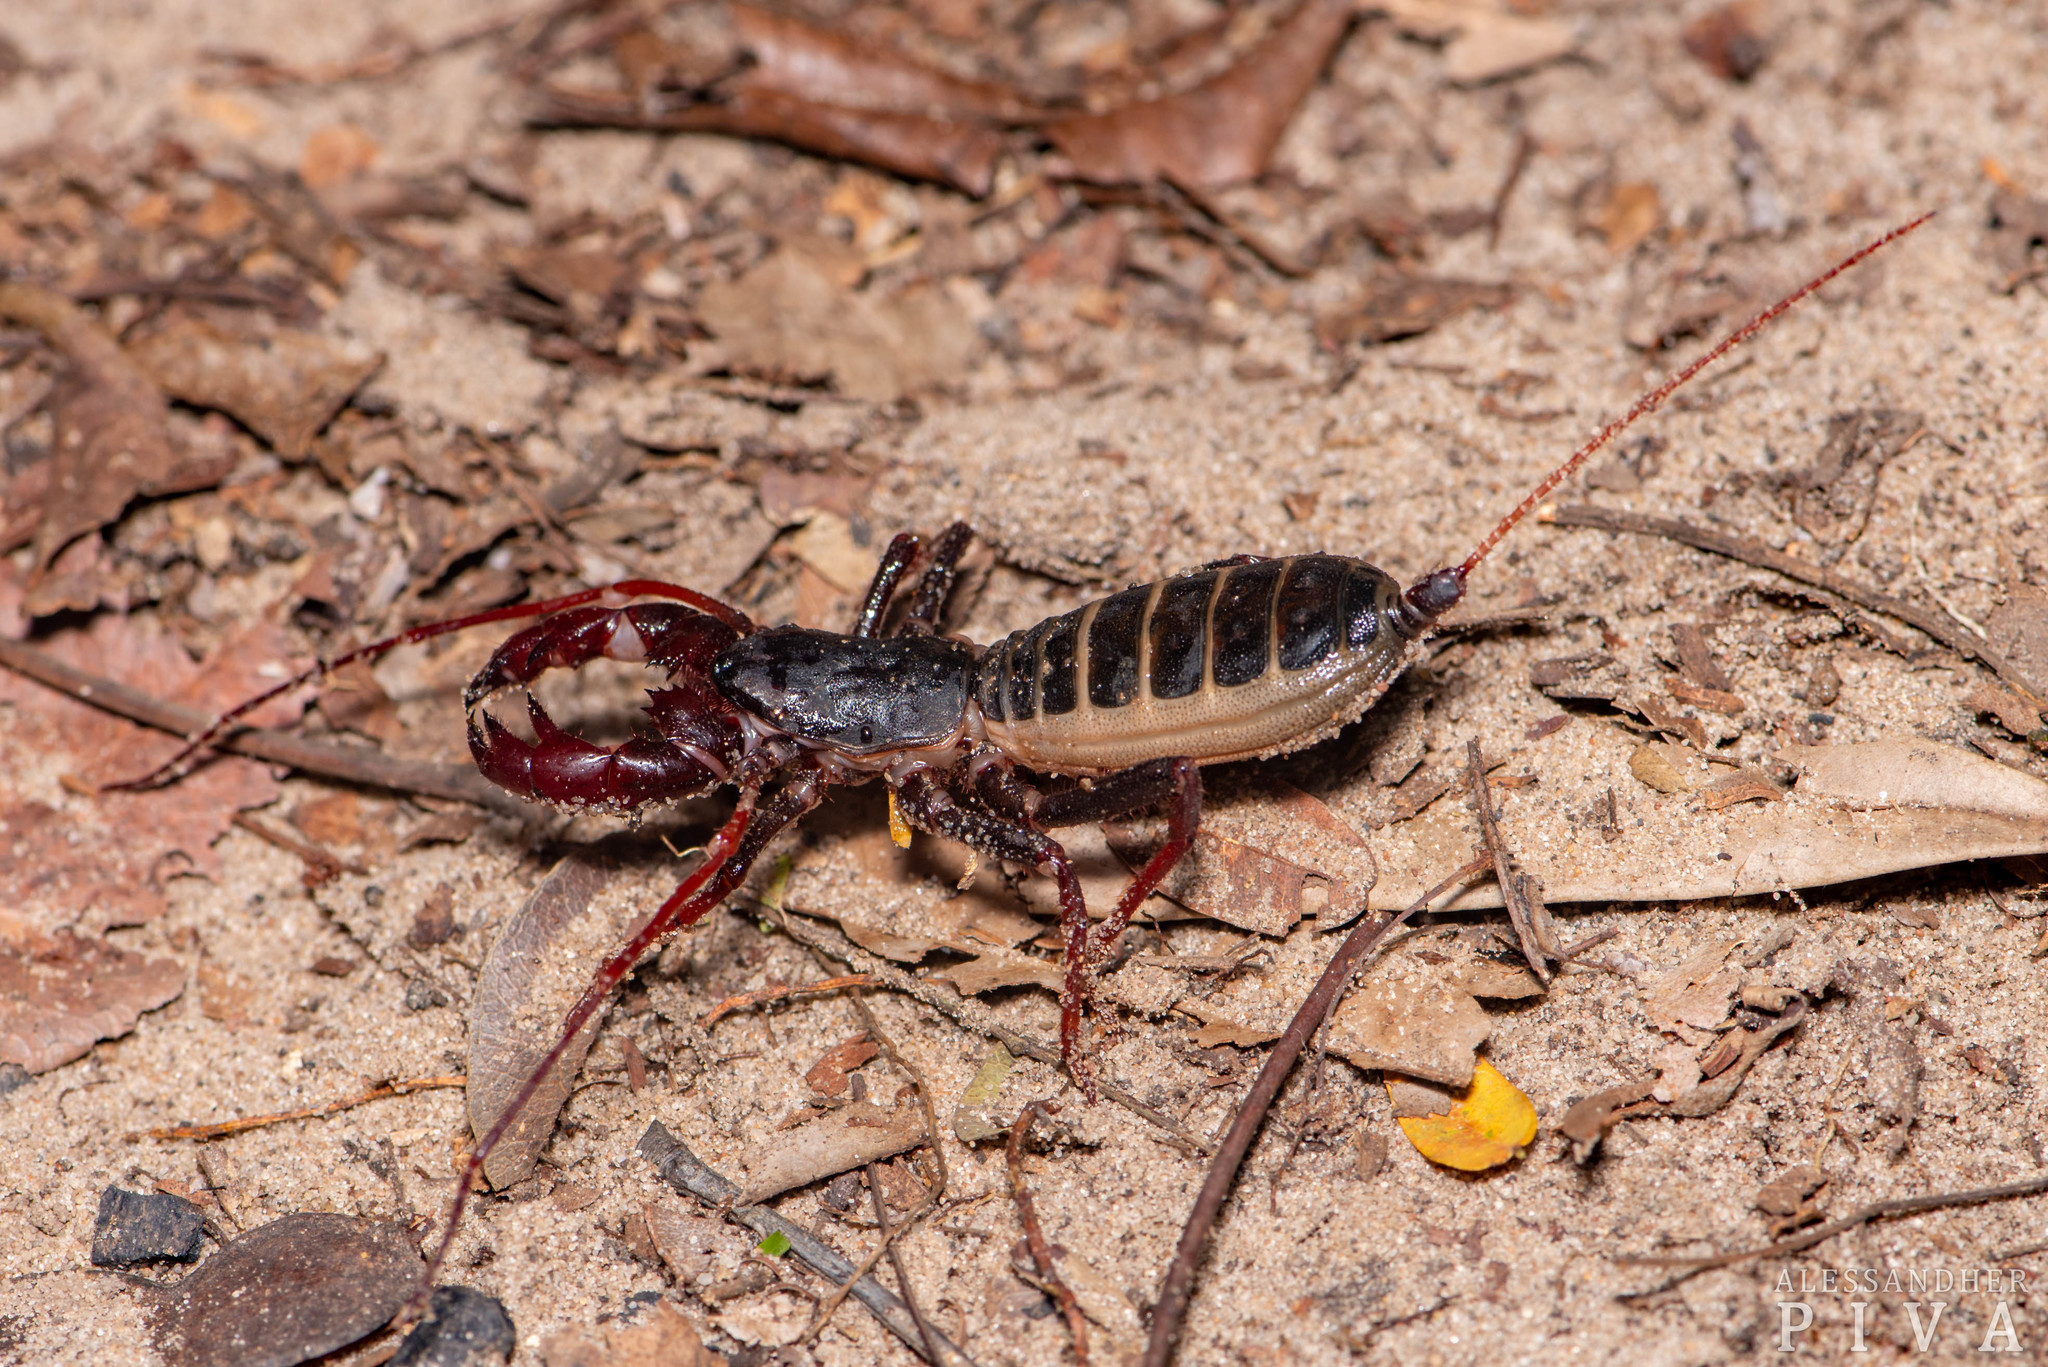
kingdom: Animalia
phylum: Arthropoda
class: Arachnida
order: Uropygi
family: Thelyphonidae
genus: Mastigoproctus
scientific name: Mastigoproctus maximus
